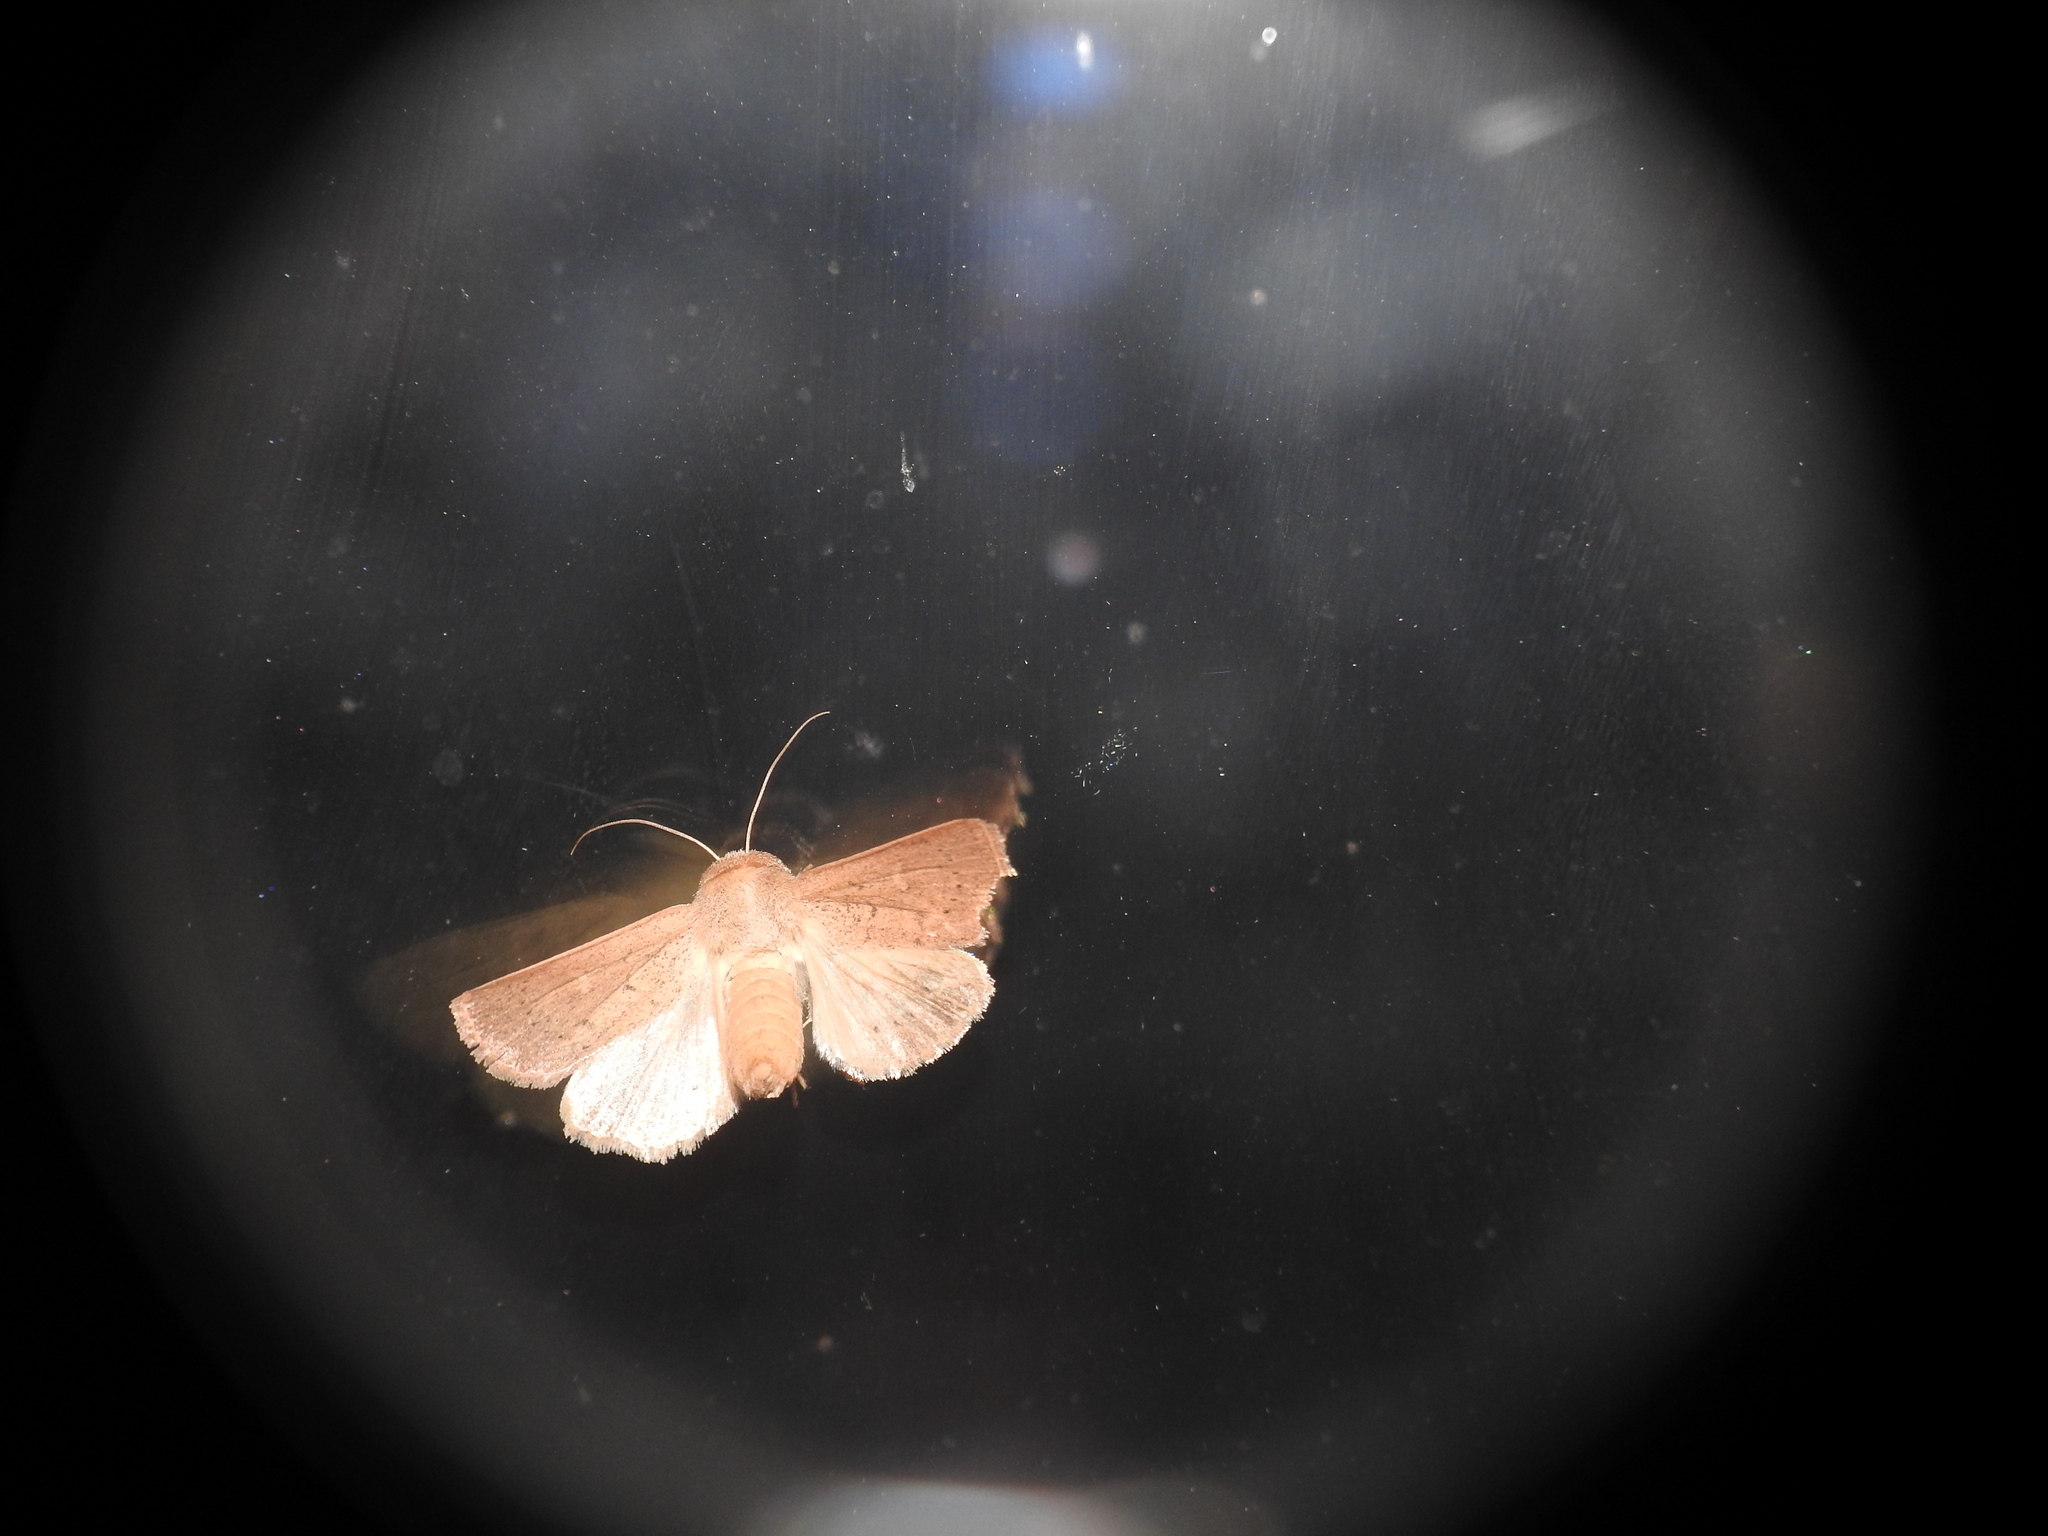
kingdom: Animalia
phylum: Arthropoda
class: Insecta
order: Lepidoptera
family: Noctuidae
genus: Mythimna
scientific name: Mythimna ferrago
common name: Clay
